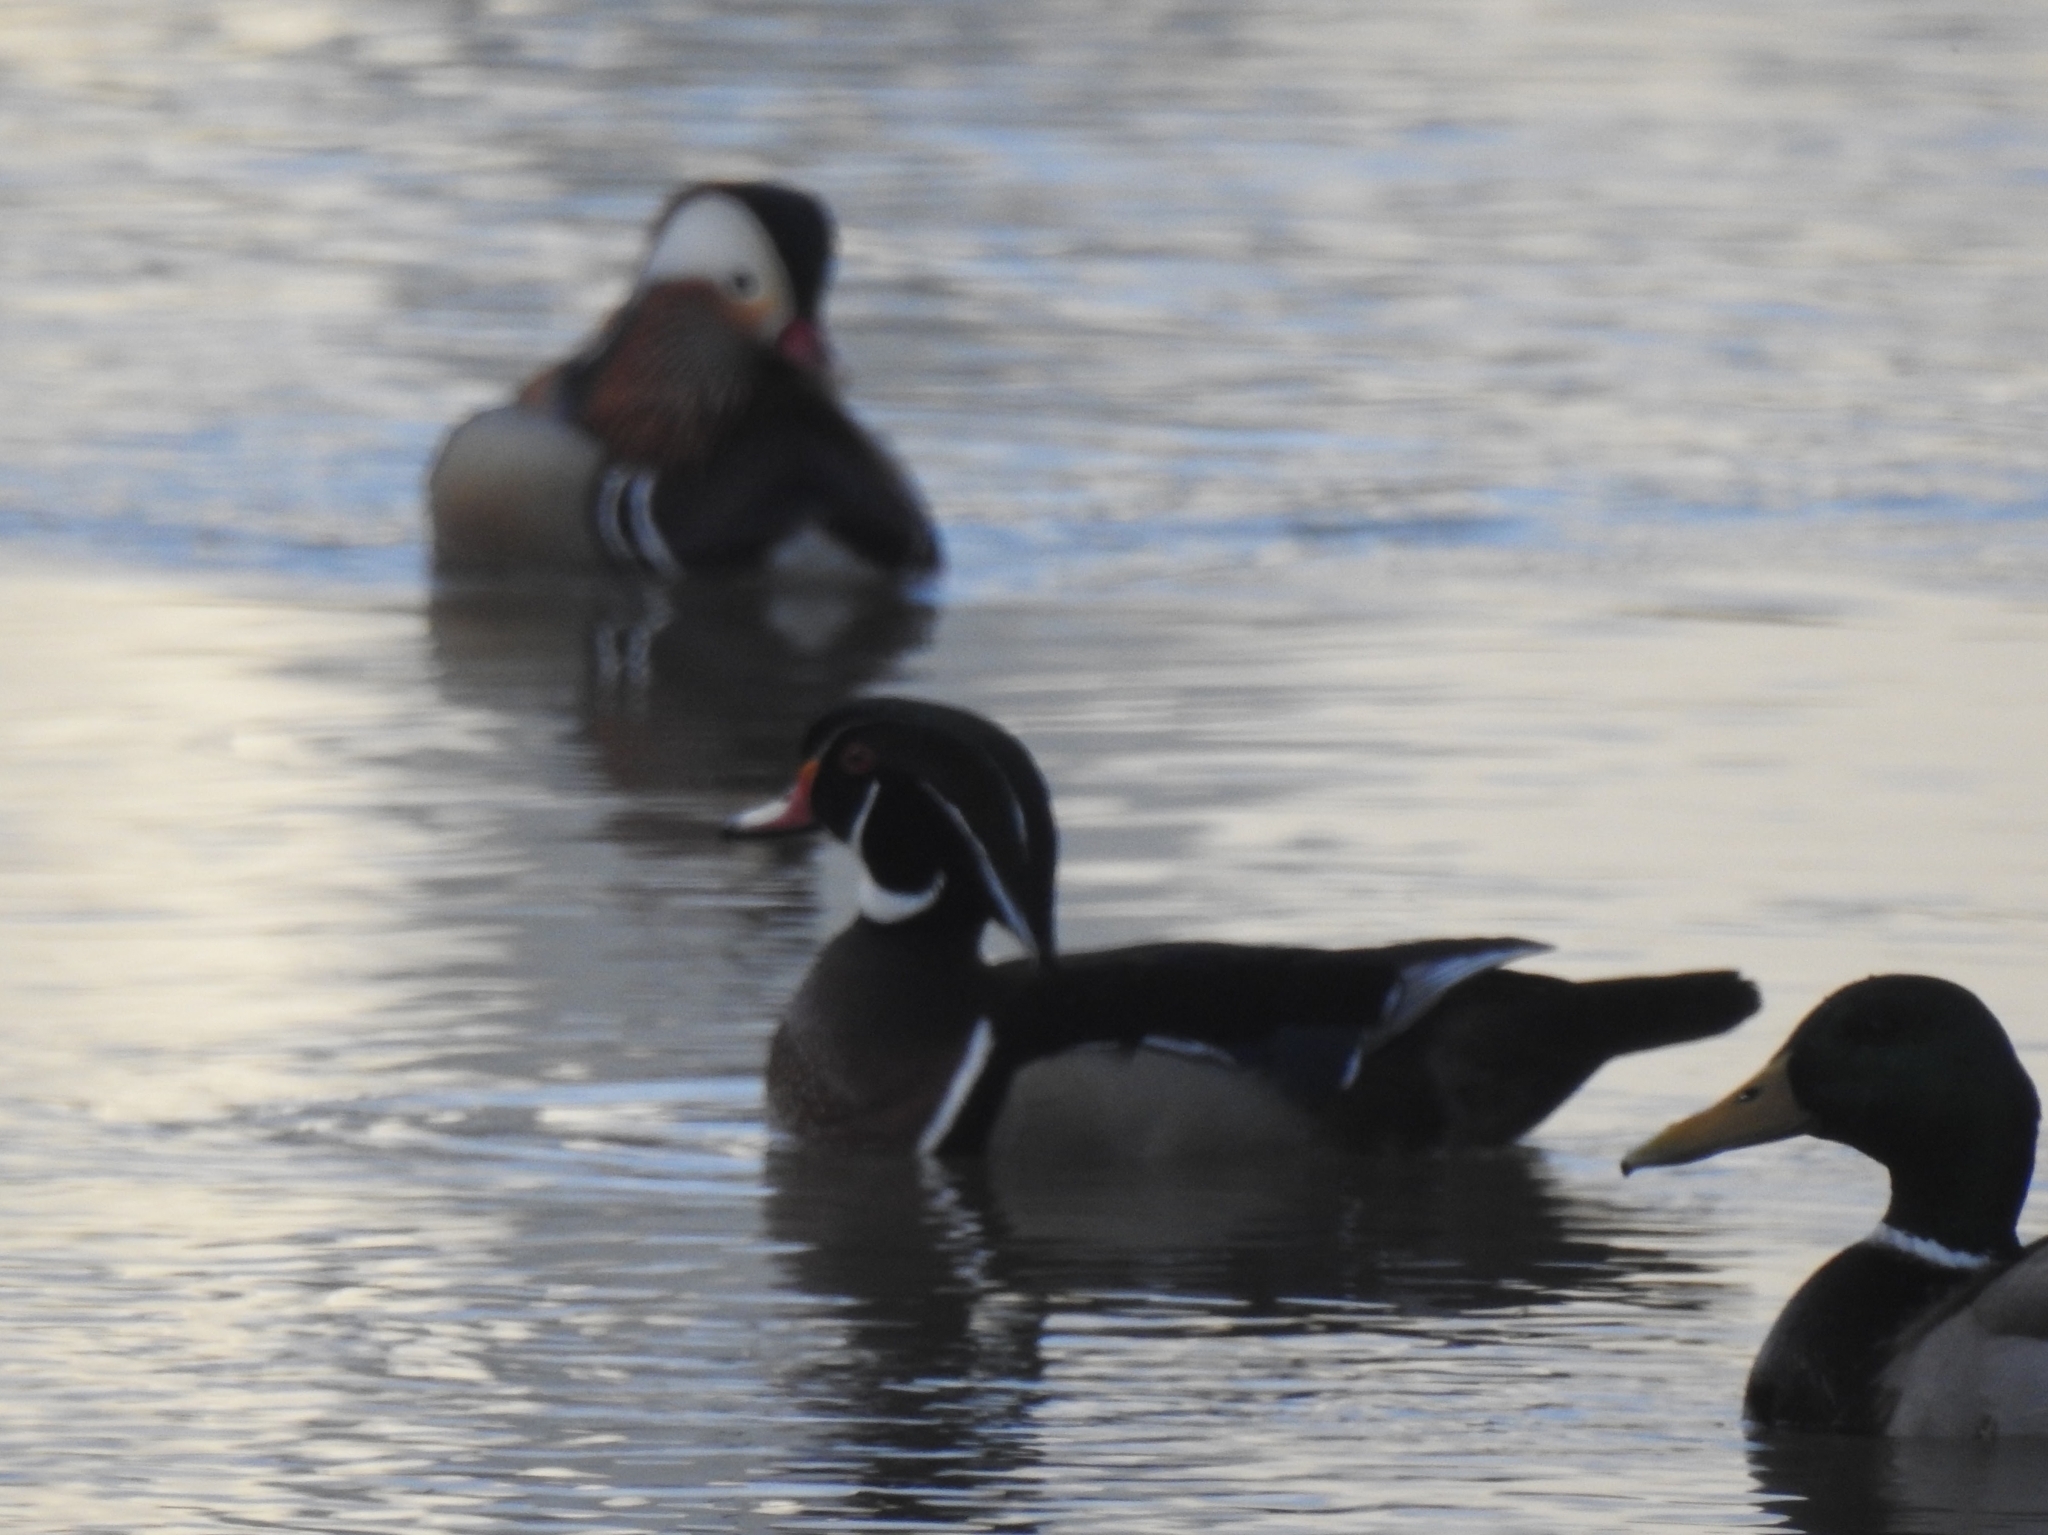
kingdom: Animalia
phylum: Chordata
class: Aves
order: Anseriformes
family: Anatidae
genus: Aix
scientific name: Aix sponsa
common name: Wood duck
